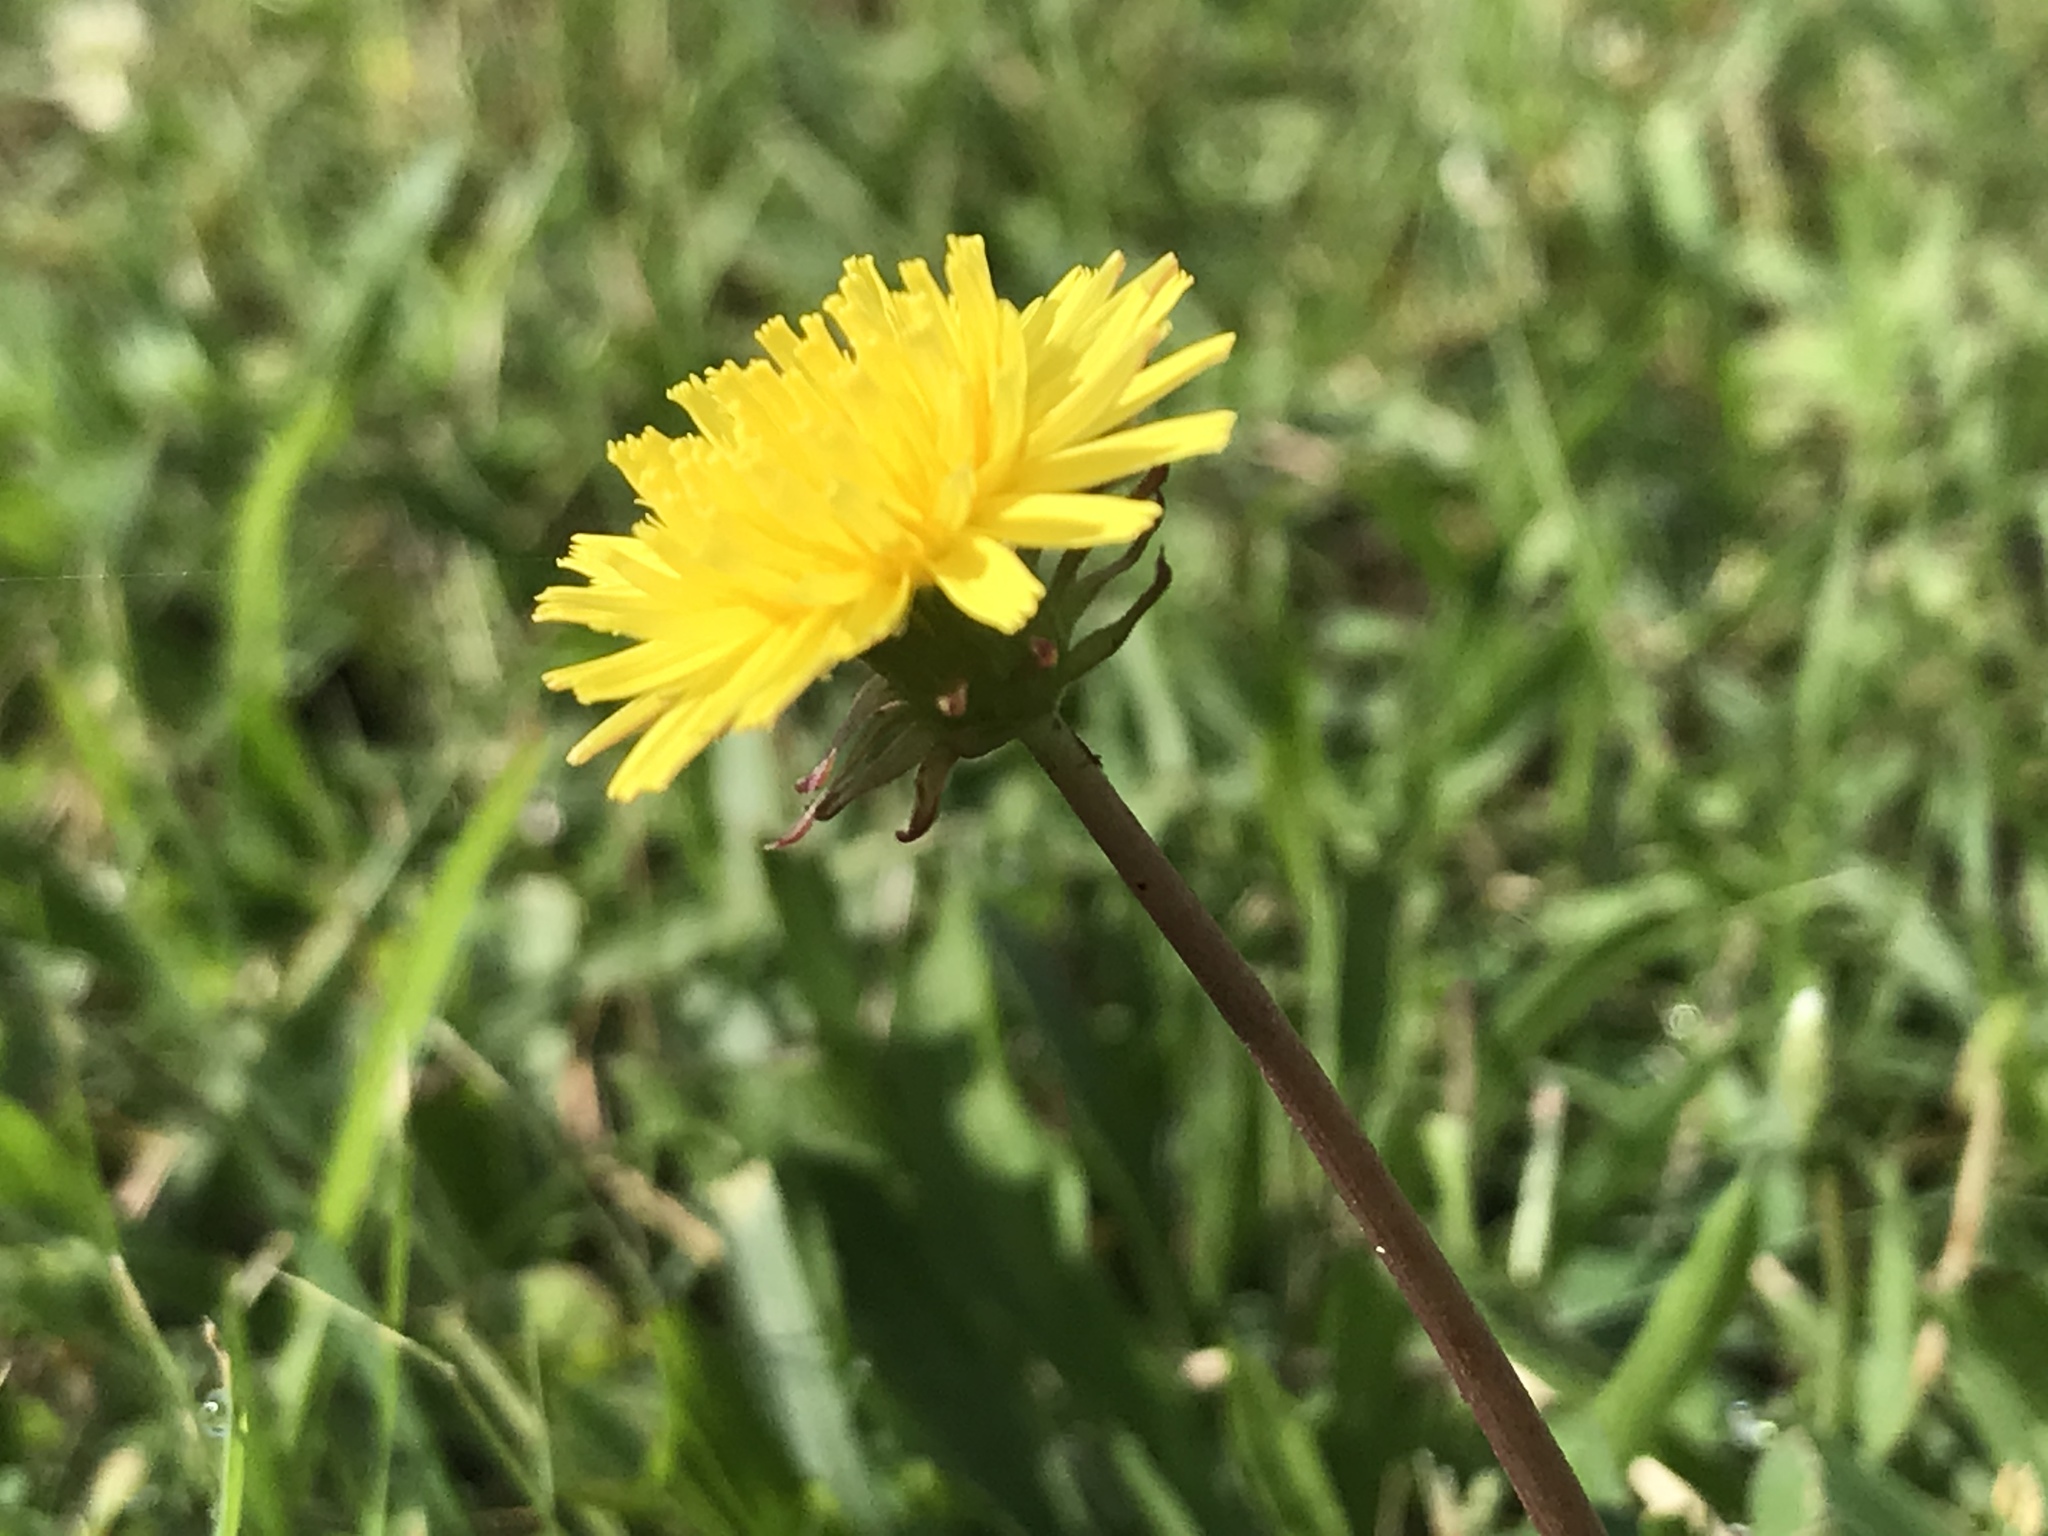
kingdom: Plantae
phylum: Tracheophyta
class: Magnoliopsida
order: Asterales
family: Asteraceae
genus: Taraxacum
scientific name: Taraxacum
